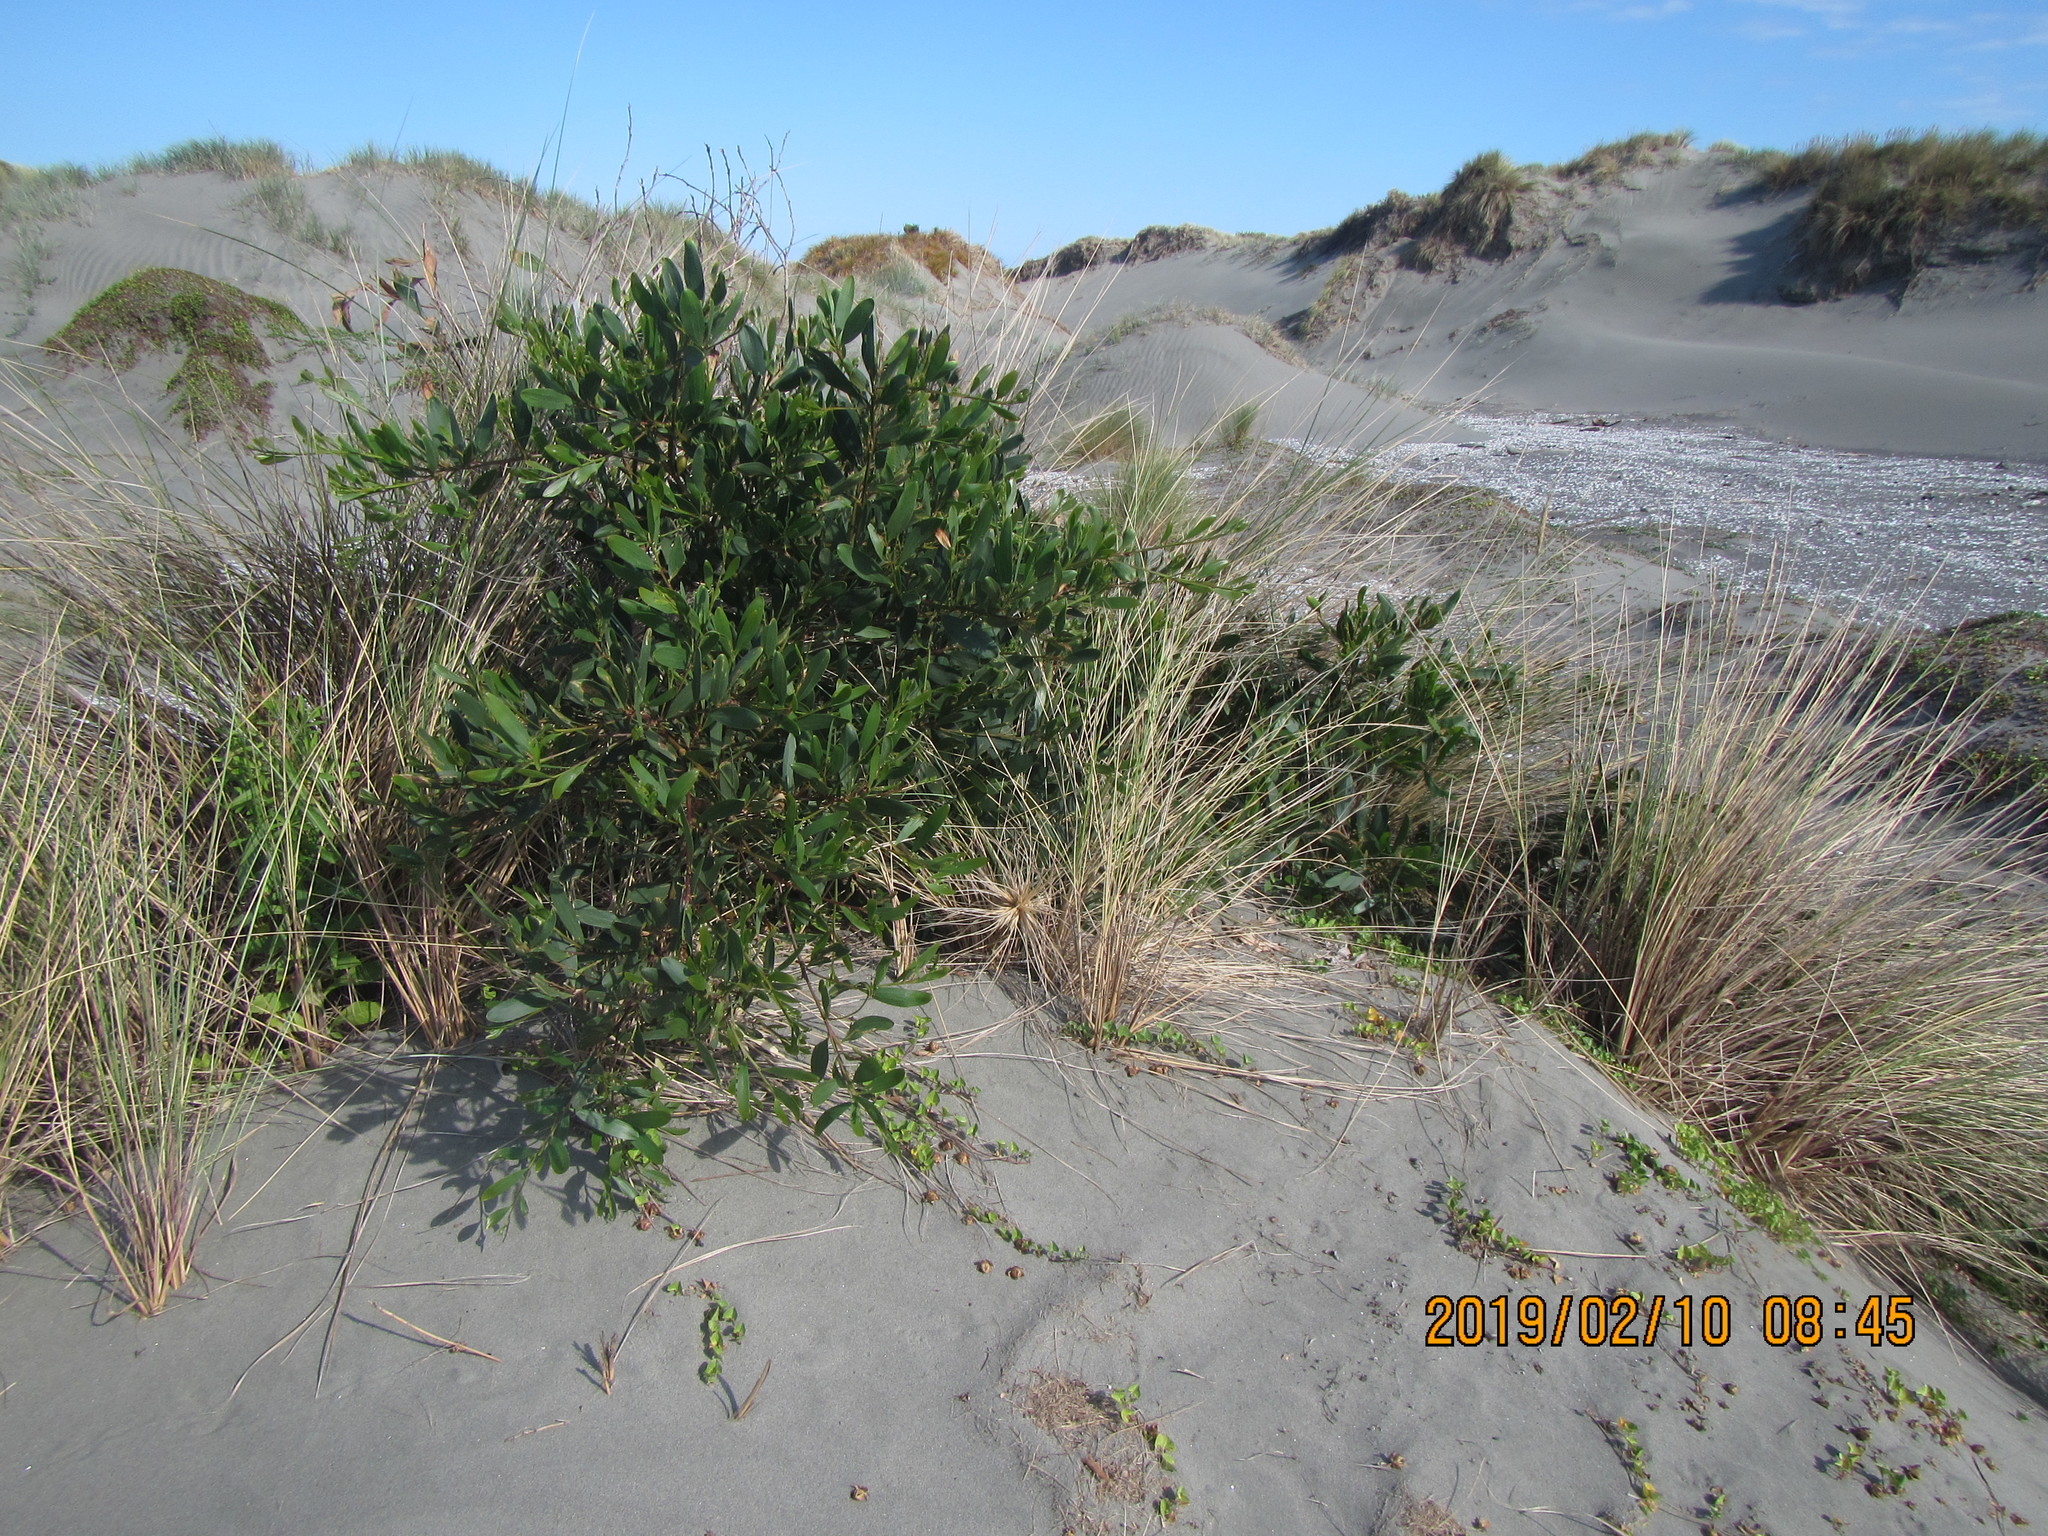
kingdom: Plantae
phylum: Tracheophyta
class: Magnoliopsida
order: Fabales
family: Fabaceae
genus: Acacia
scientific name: Acacia longifolia
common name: Sydney golden wattle
